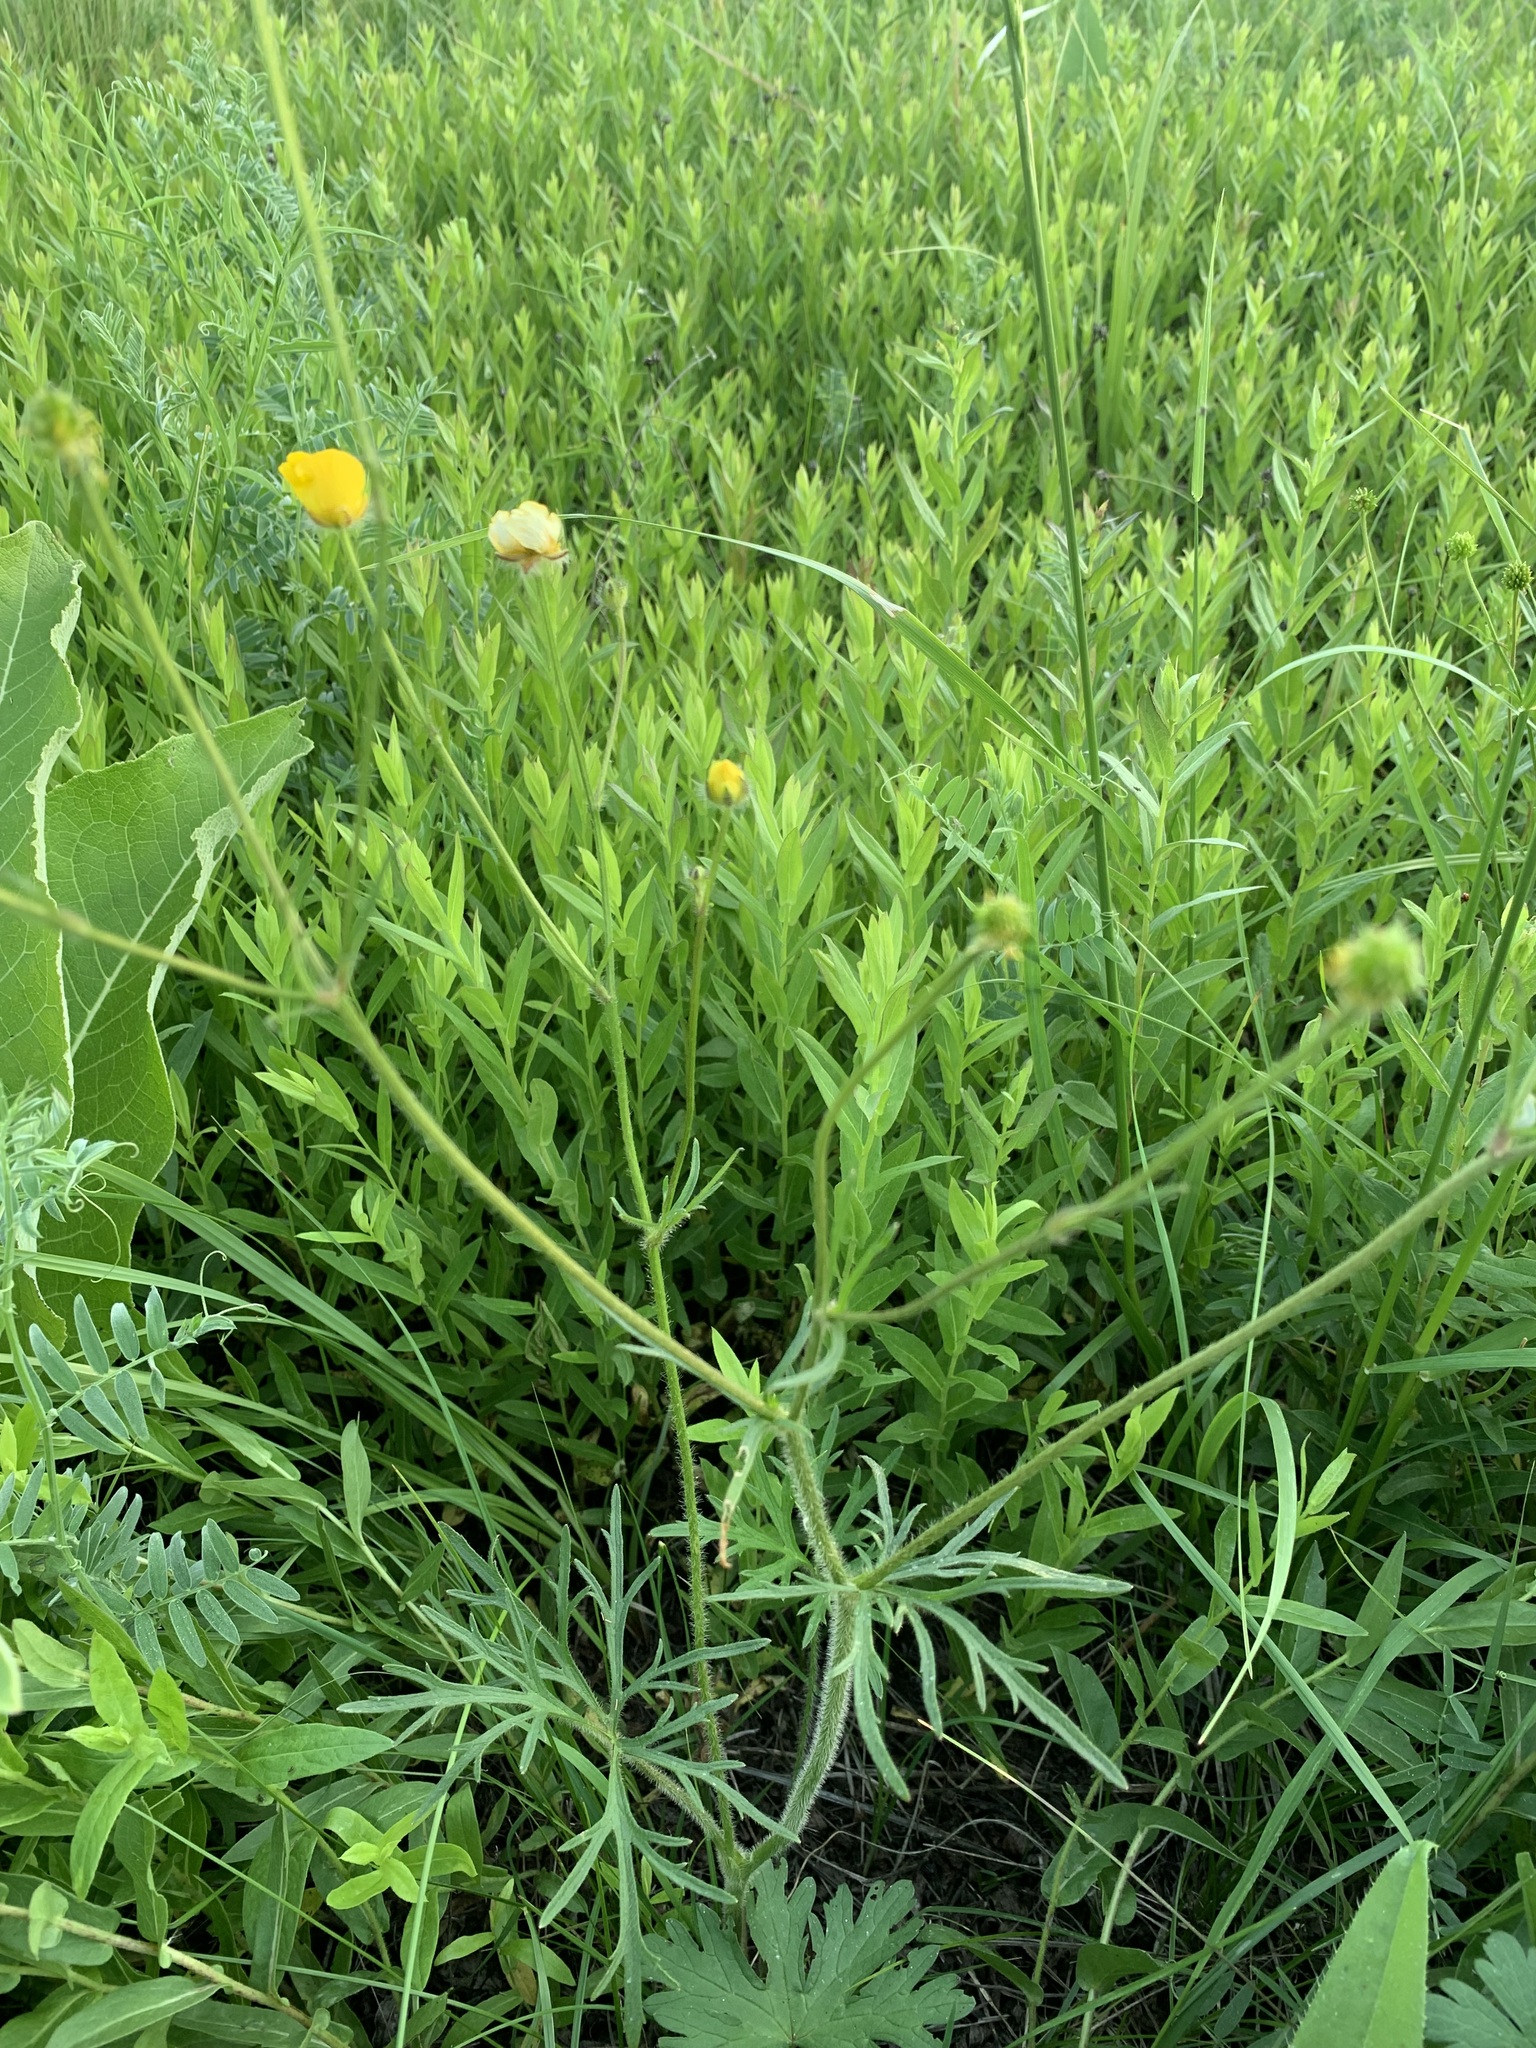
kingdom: Plantae
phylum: Tracheophyta
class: Magnoliopsida
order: Ranunculales
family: Ranunculaceae
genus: Ranunculus
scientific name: Ranunculus polyanthemos
